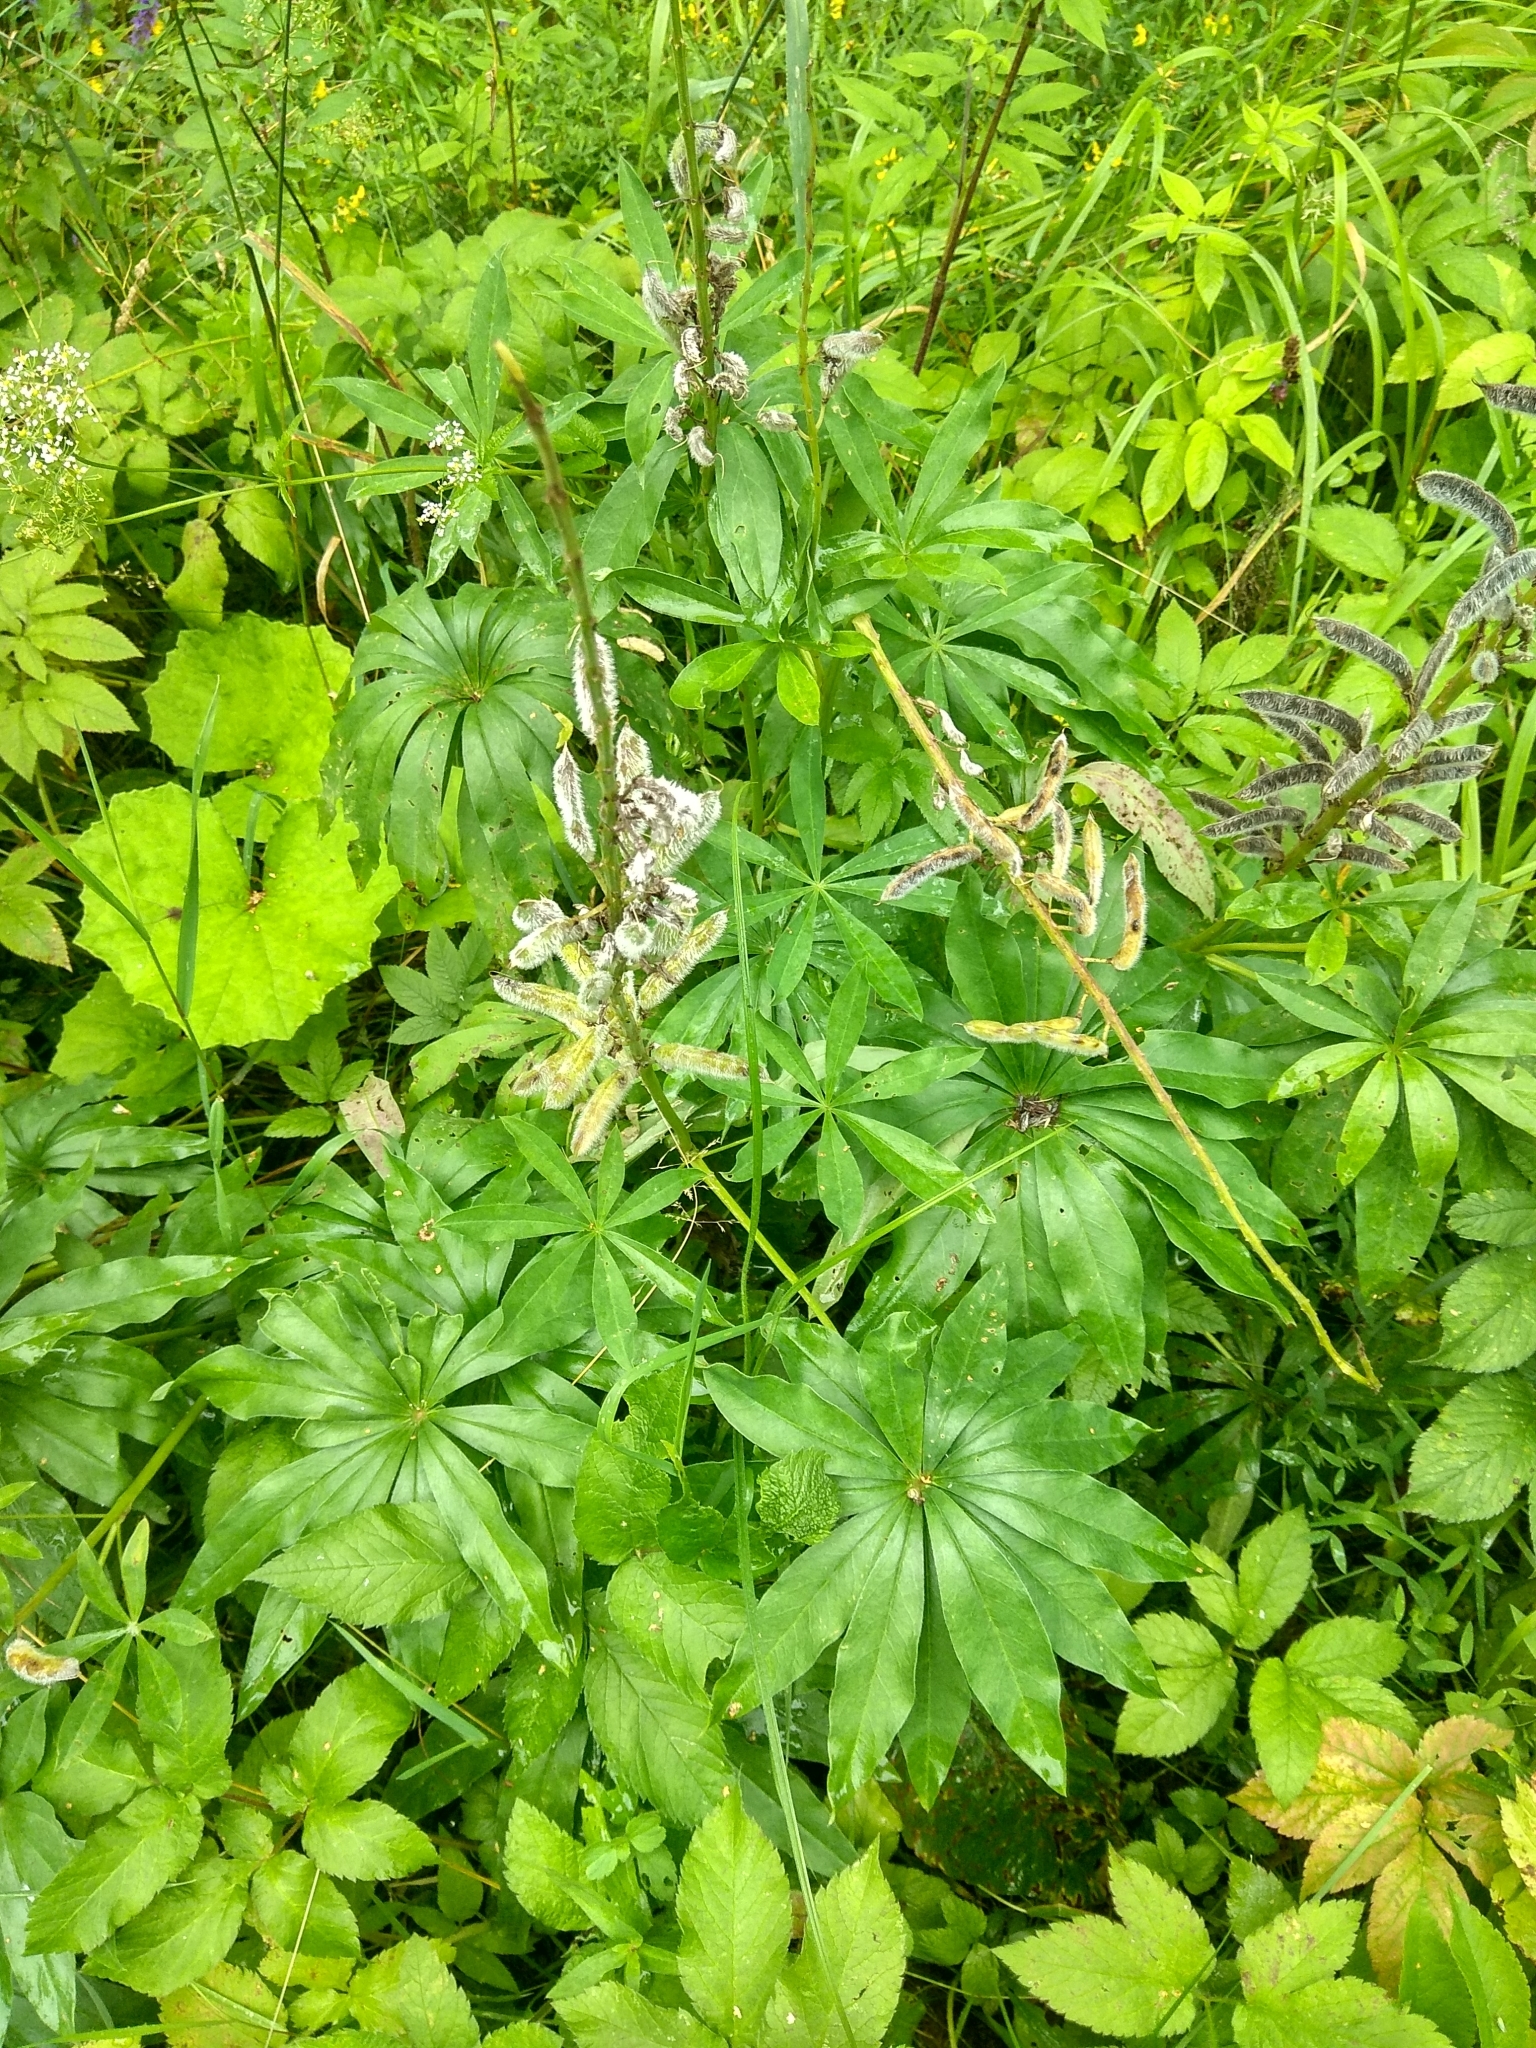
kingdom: Plantae
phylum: Tracheophyta
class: Magnoliopsida
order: Fabales
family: Fabaceae
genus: Lupinus
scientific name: Lupinus polyphyllus
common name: Garden lupin
